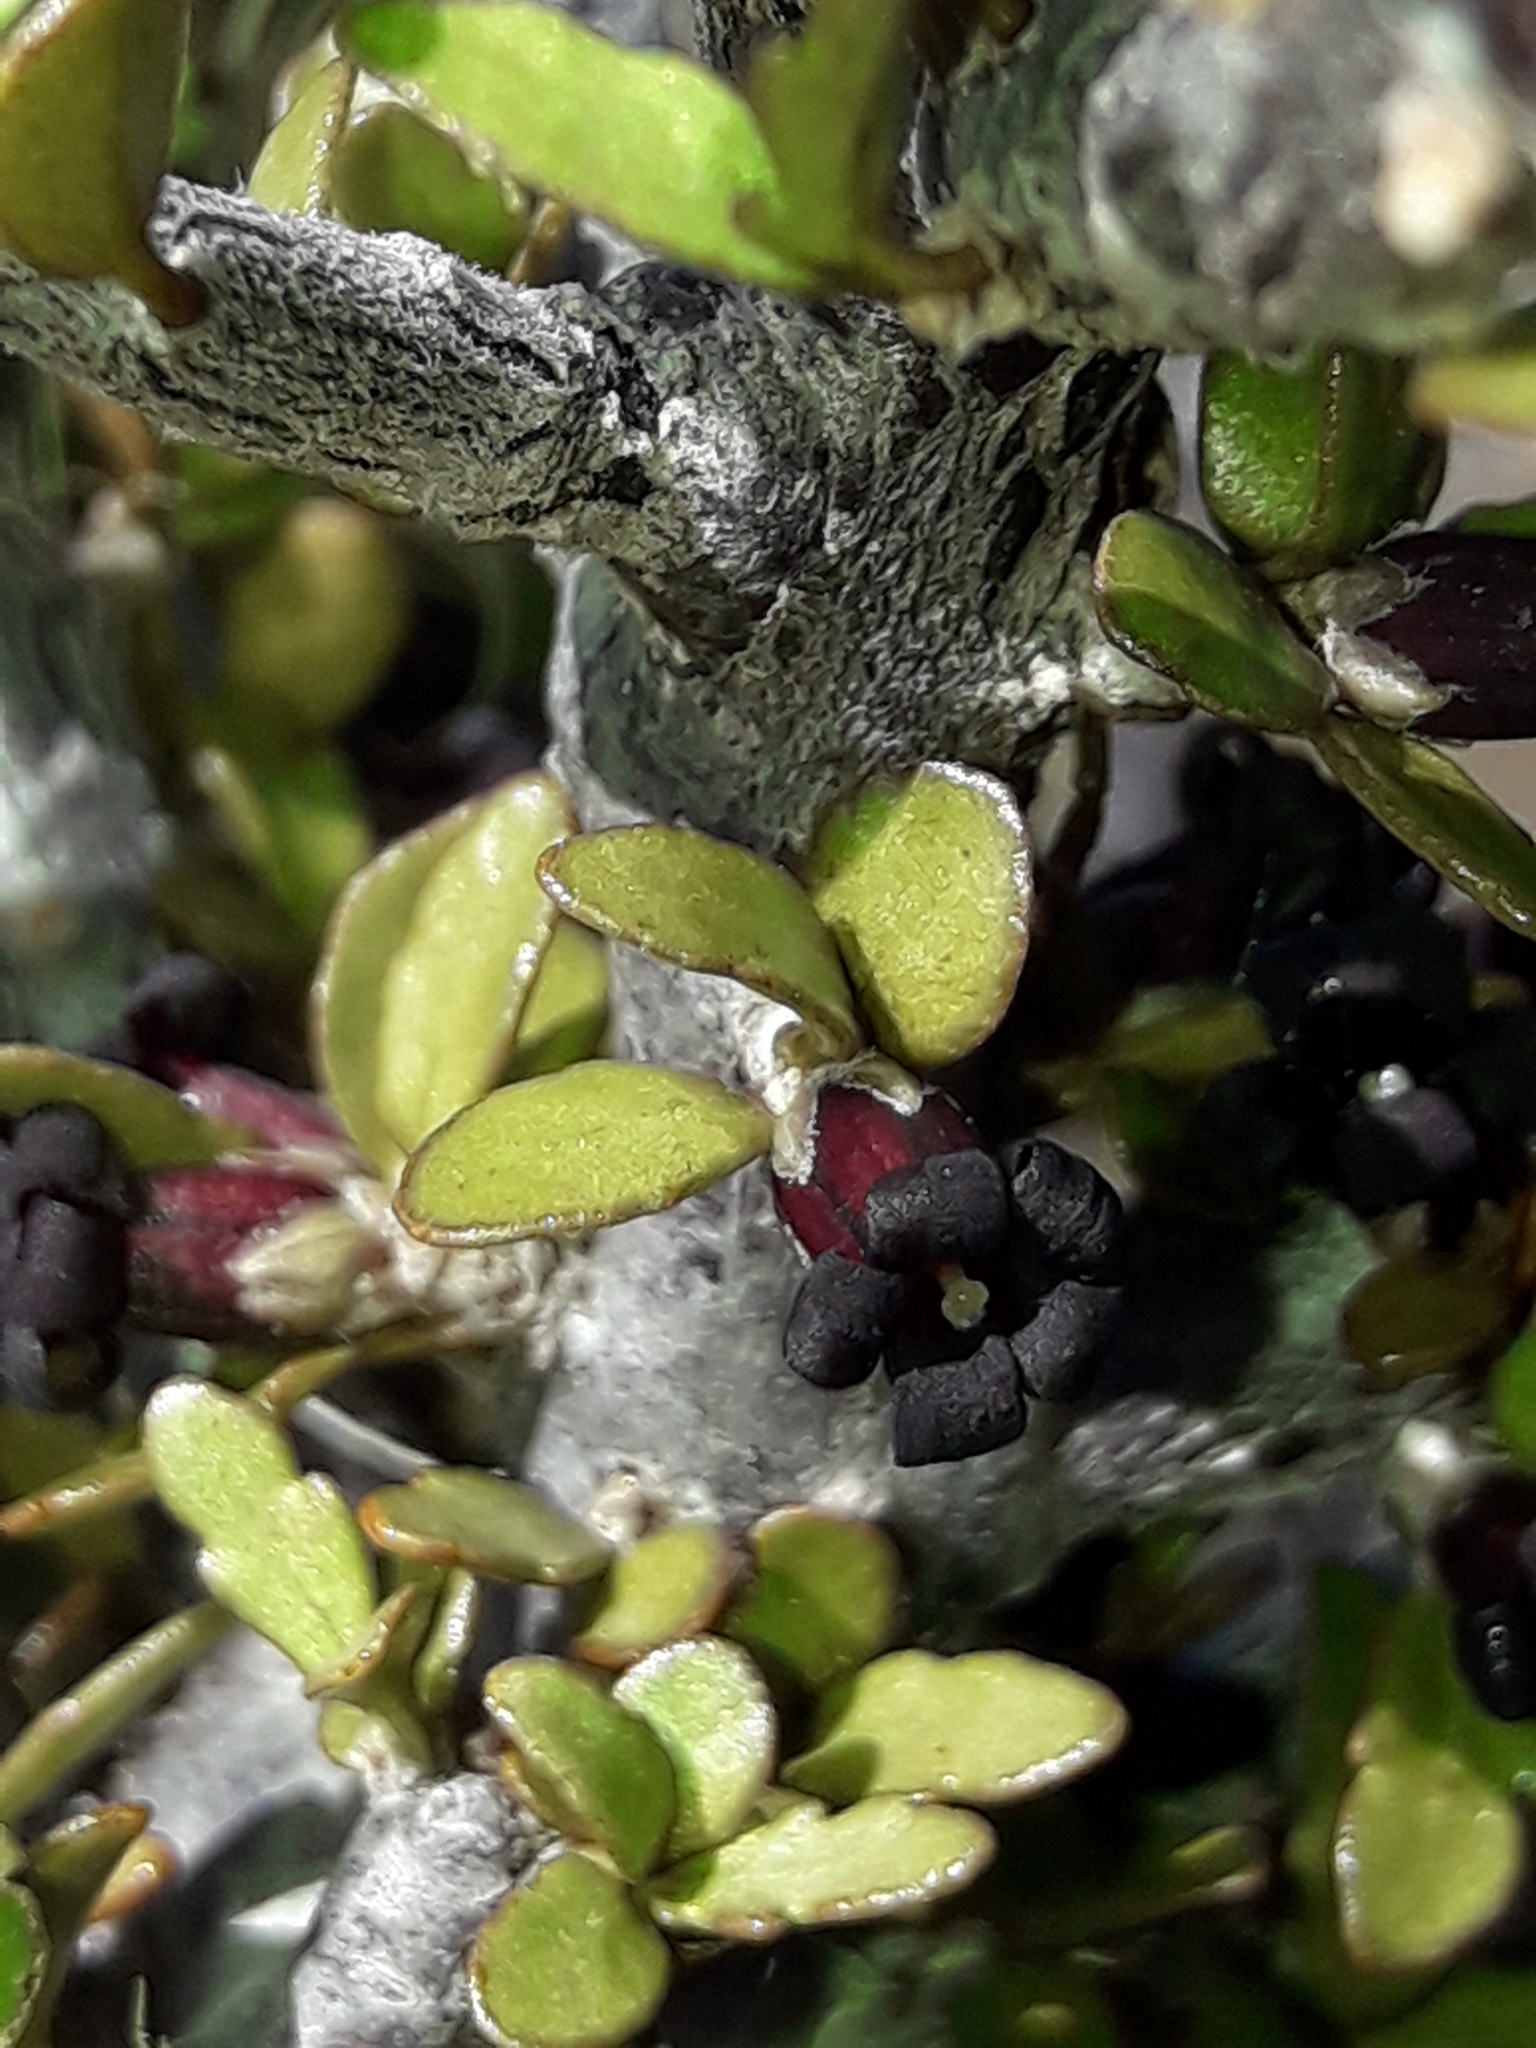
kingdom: Plantae
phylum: Tracheophyta
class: Magnoliopsida
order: Apiales
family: Pittosporaceae
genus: Pittosporum
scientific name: Pittosporum rigidum
